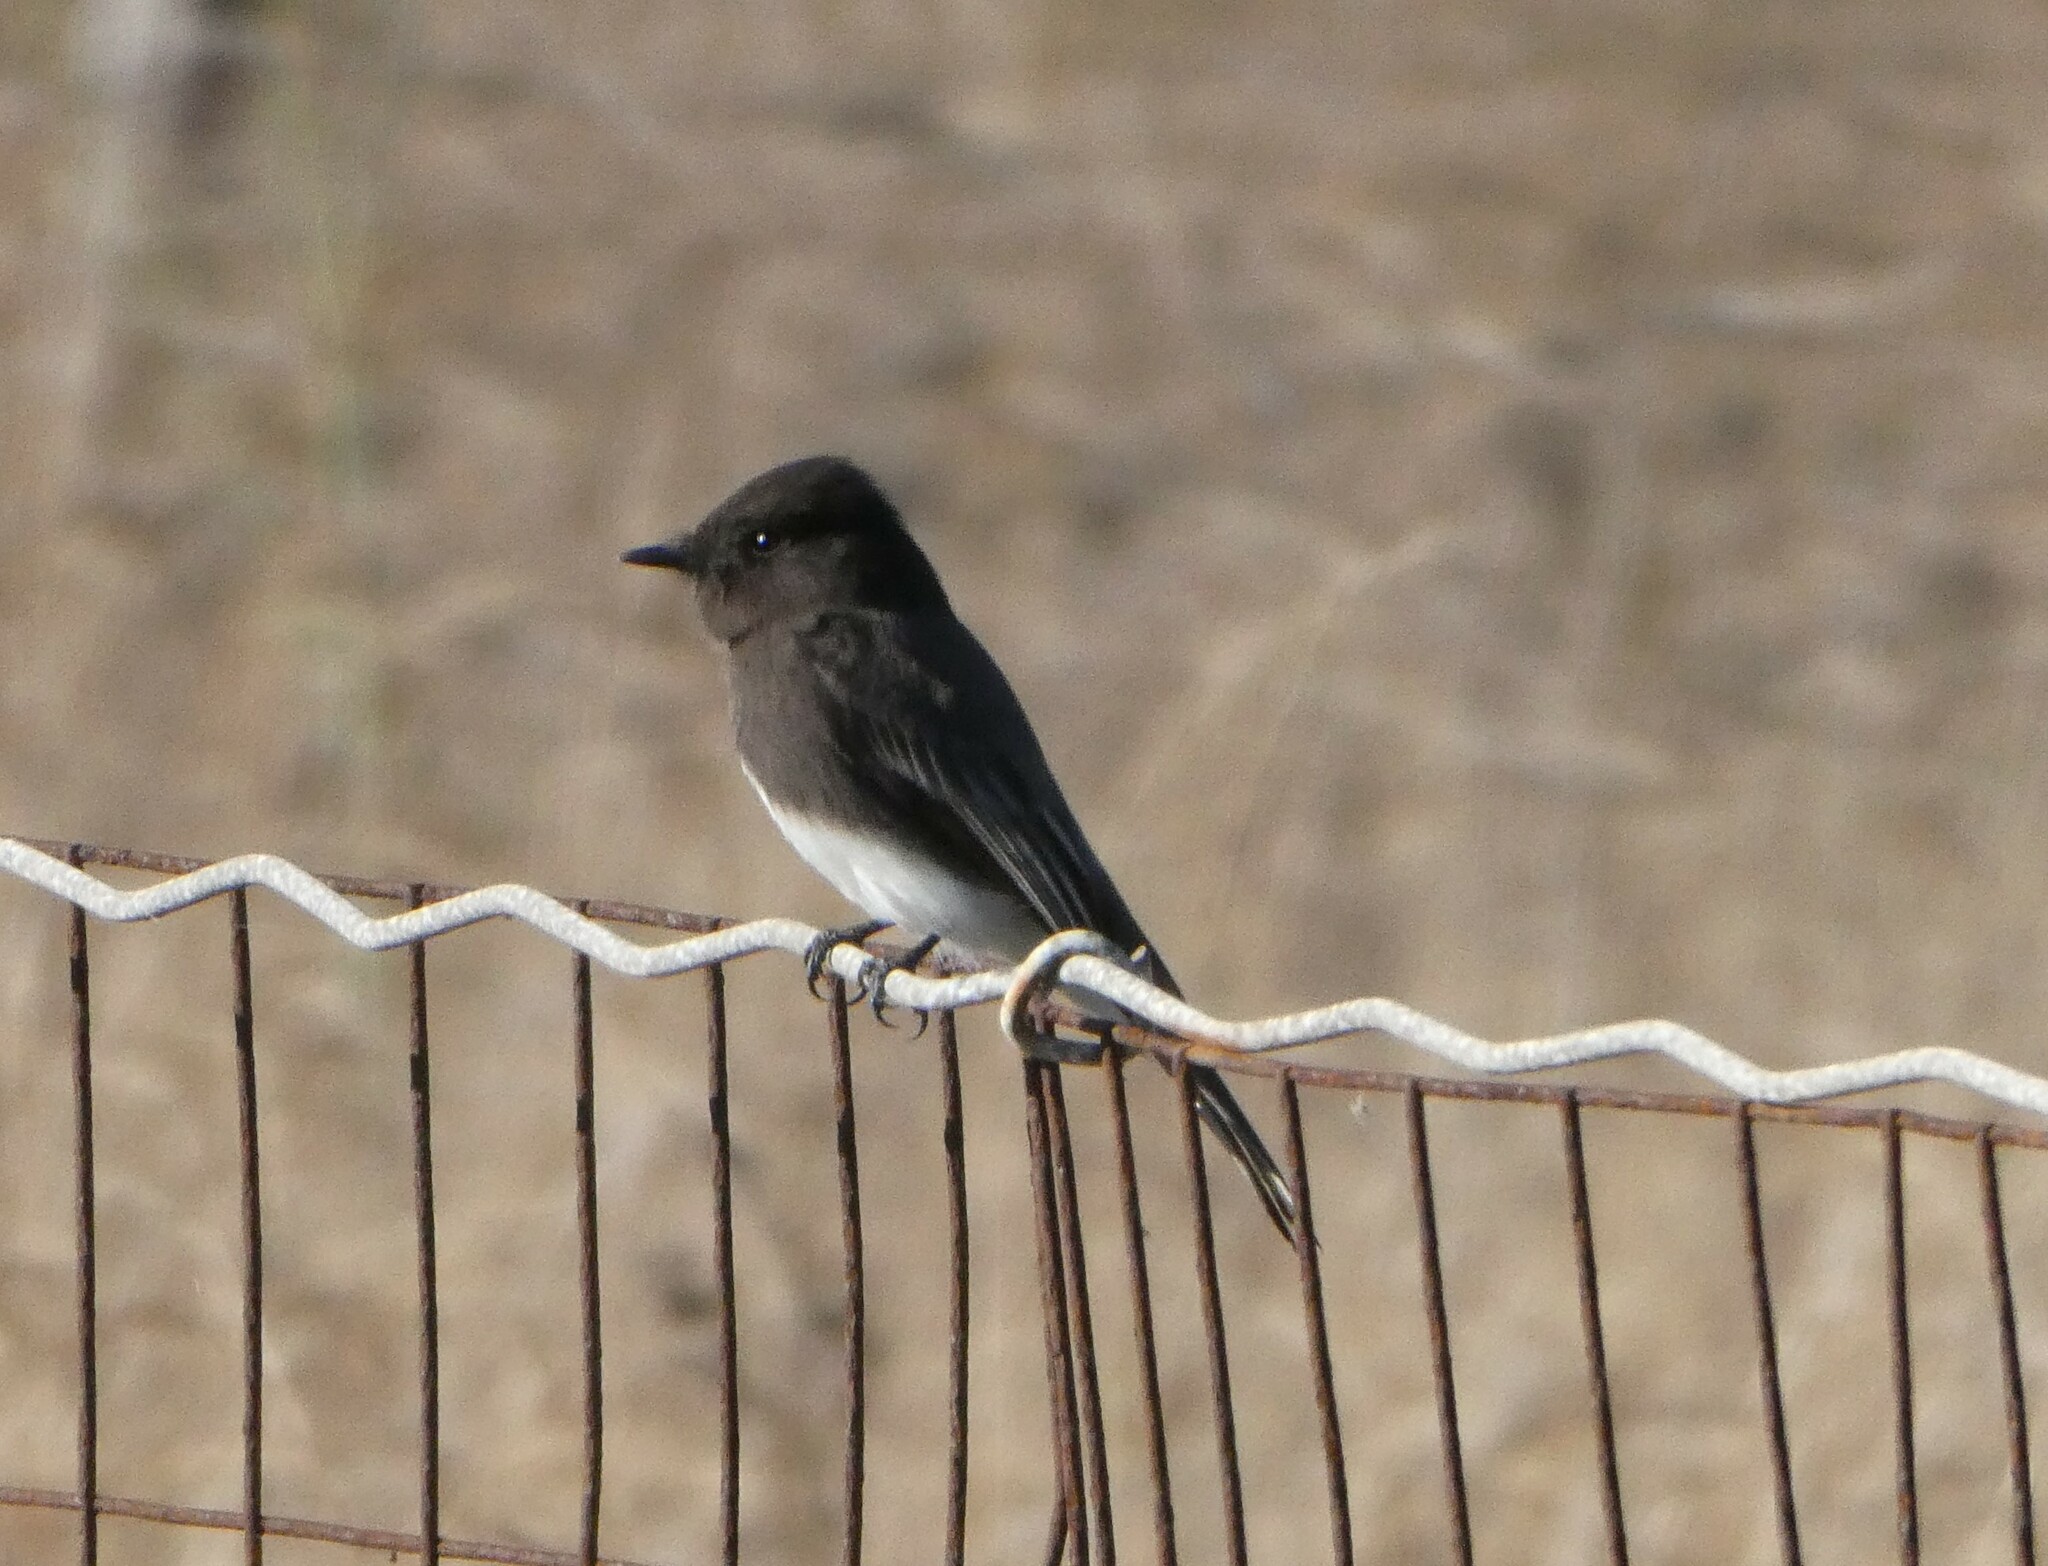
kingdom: Animalia
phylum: Chordata
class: Aves
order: Passeriformes
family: Tyrannidae
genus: Sayornis
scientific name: Sayornis nigricans
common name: Black phoebe
